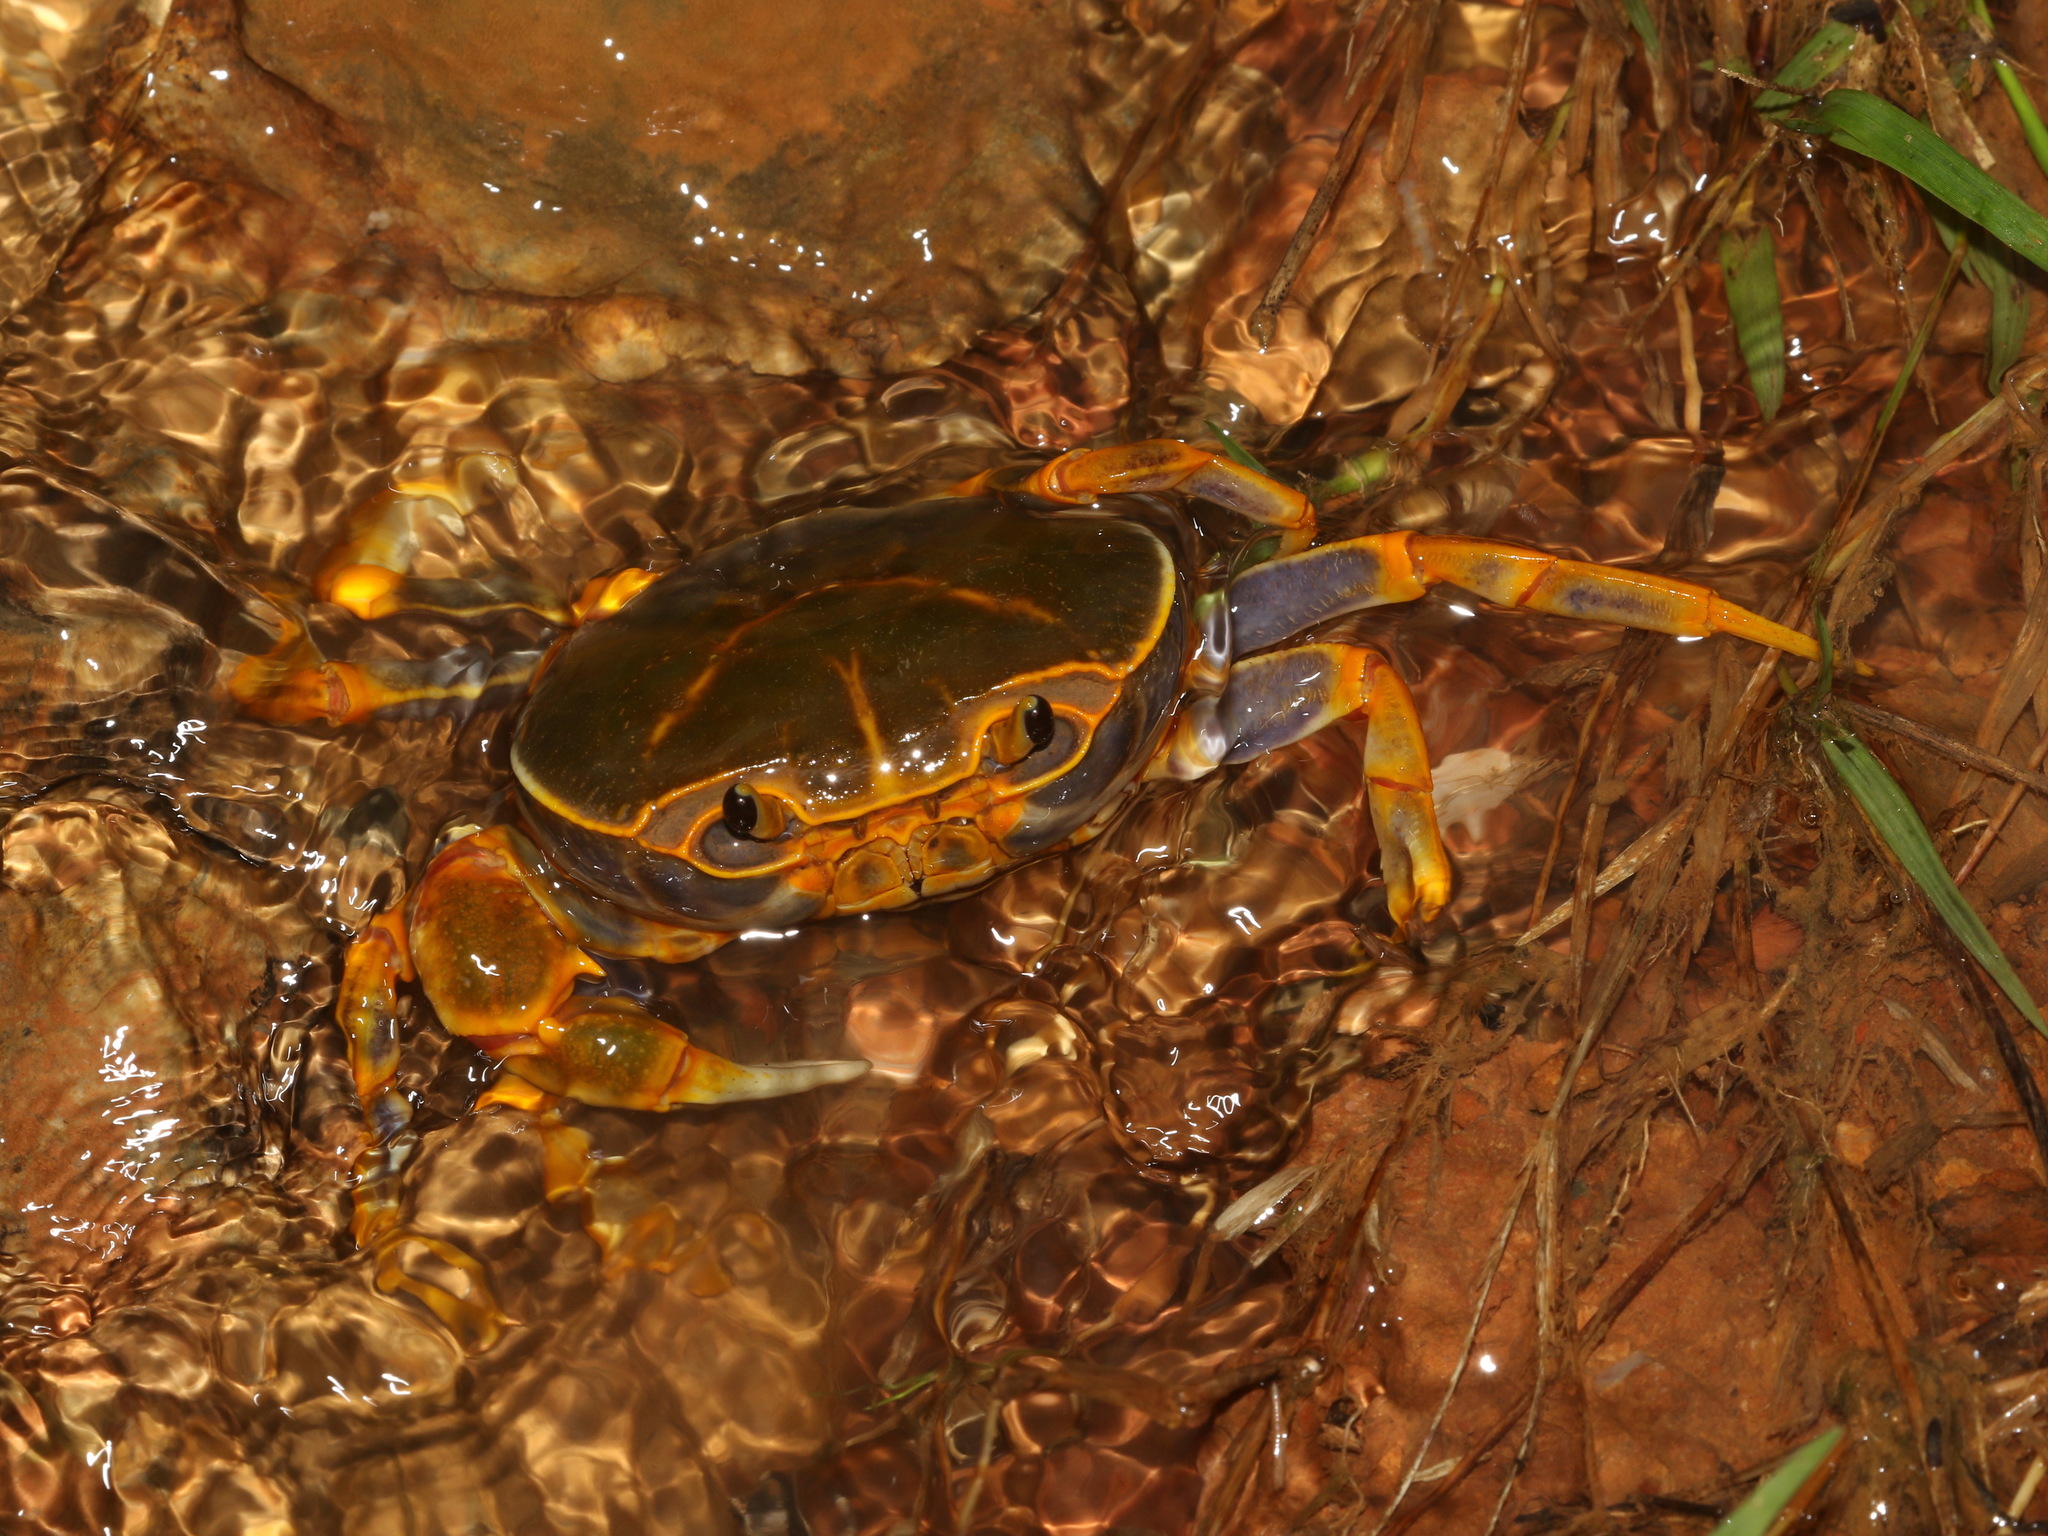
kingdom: Animalia
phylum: Arthropoda
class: Malacostraca
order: Decapoda
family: Potamidae
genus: Demanietta
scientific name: Demanietta khirikhan
